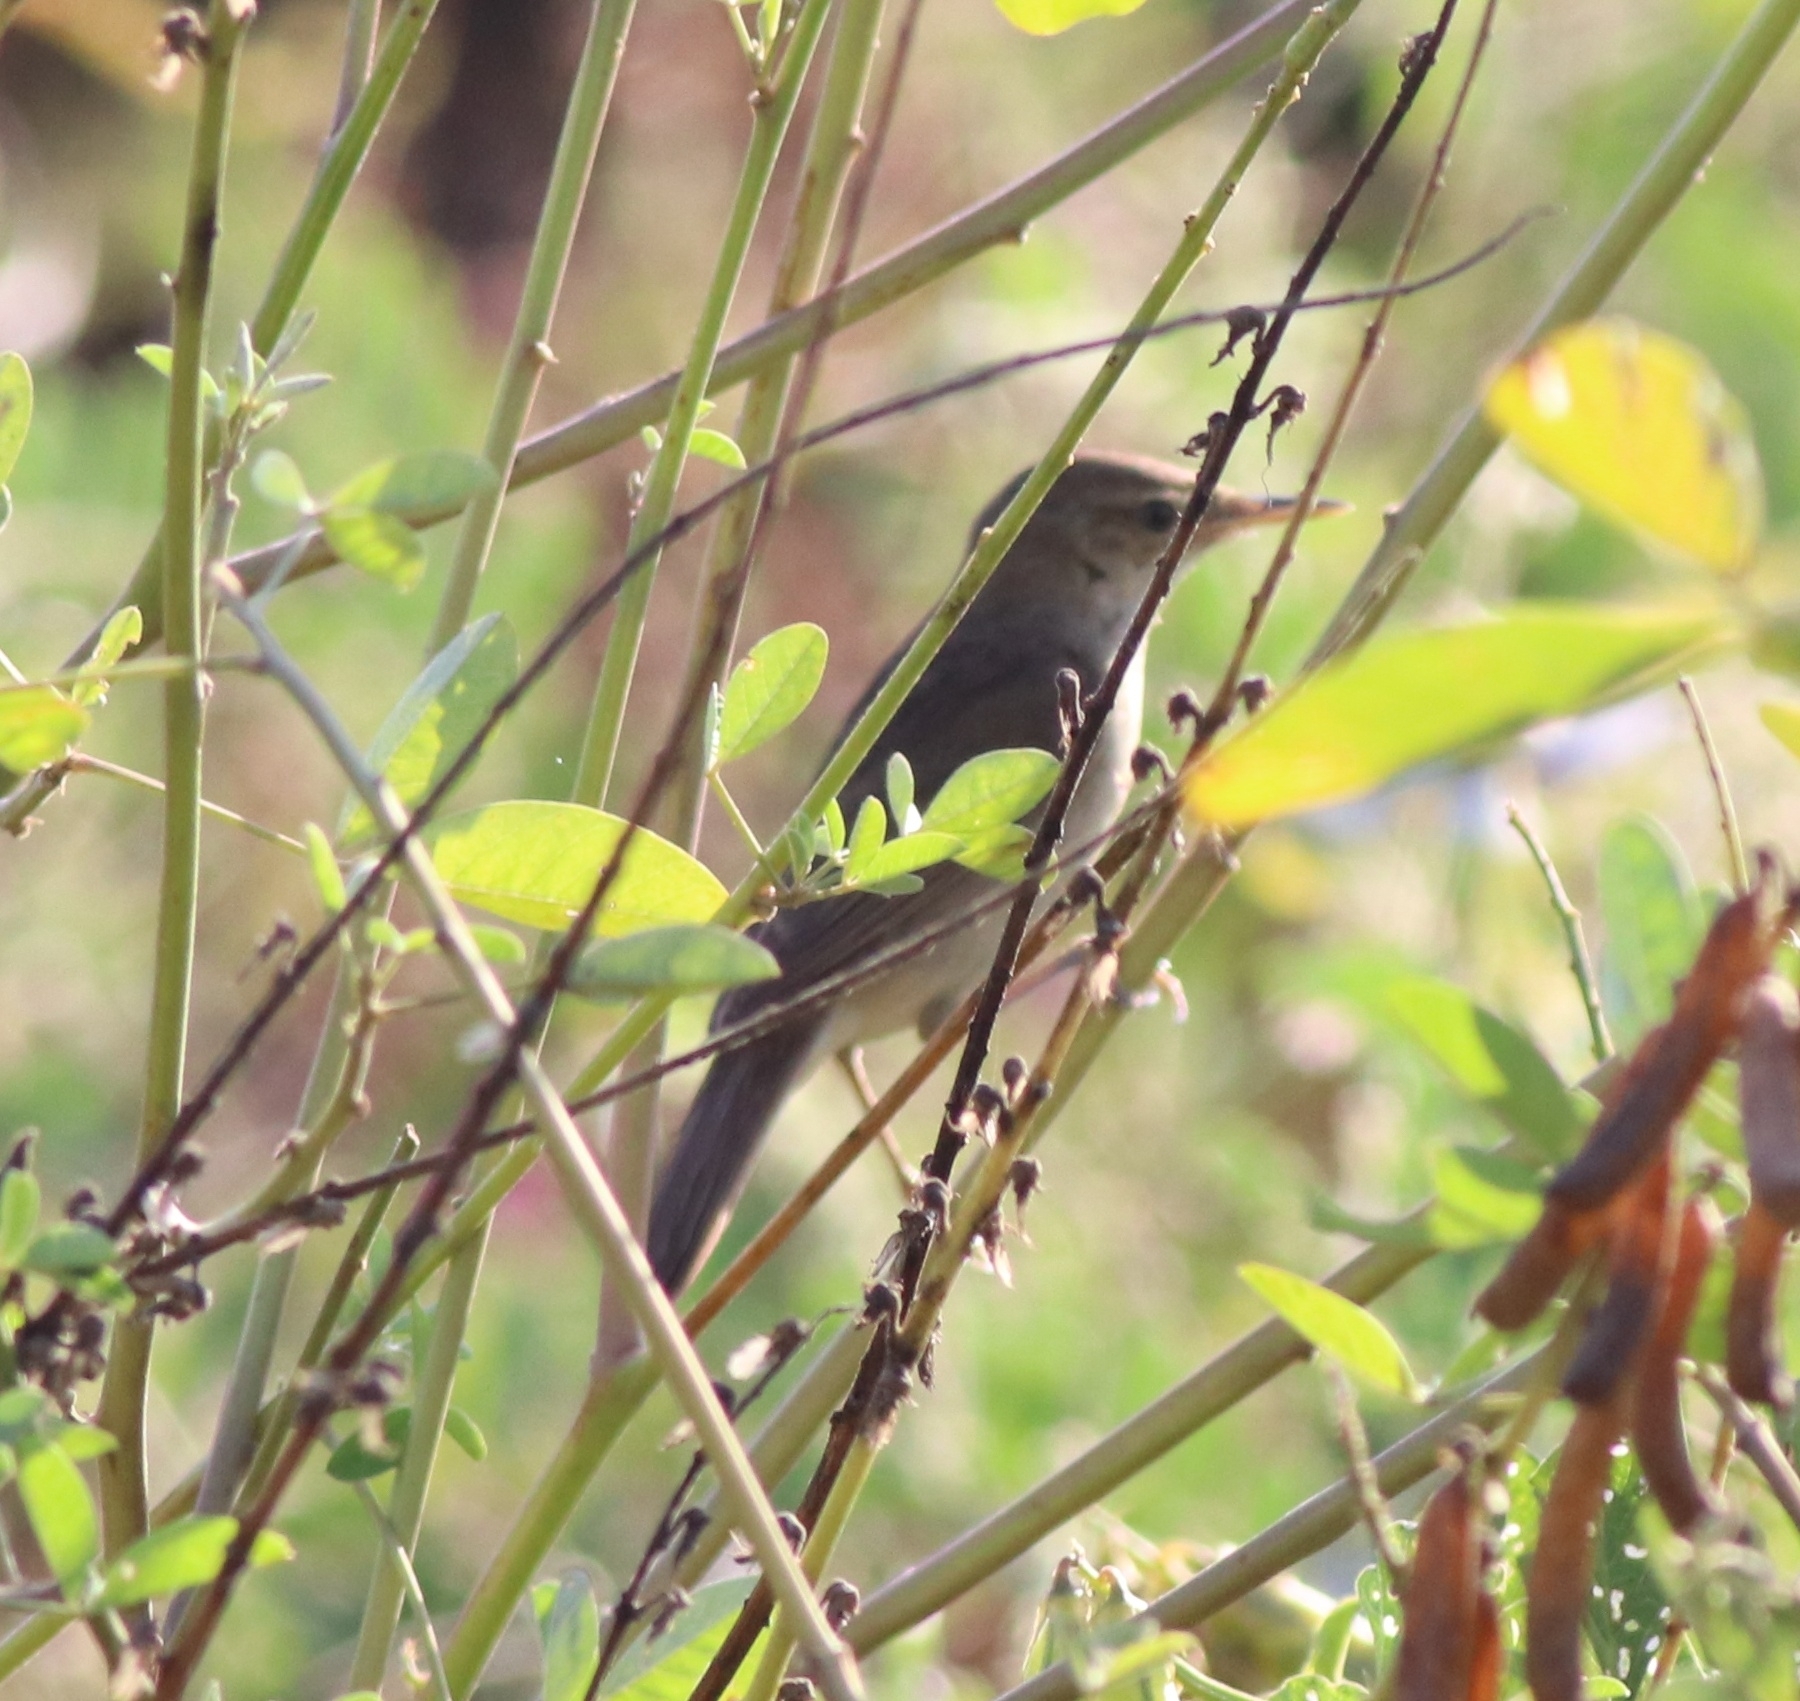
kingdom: Animalia
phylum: Chordata
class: Aves
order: Passeriformes
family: Acrocephalidae
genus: Acrocephalus
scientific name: Acrocephalus dumetorum
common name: Blyth's reed warbler
